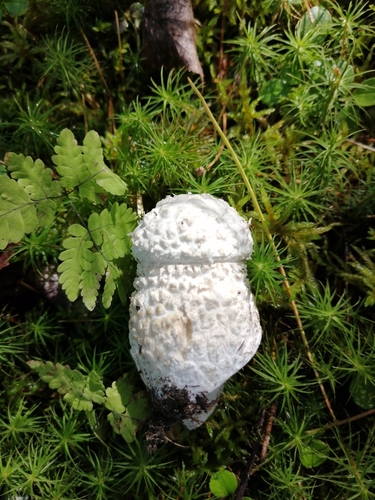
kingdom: Fungi
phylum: Basidiomycota
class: Agaricomycetes
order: Agaricales
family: Amanitaceae
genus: Amanita
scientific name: Amanita strobiliformis
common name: Warted amanita
